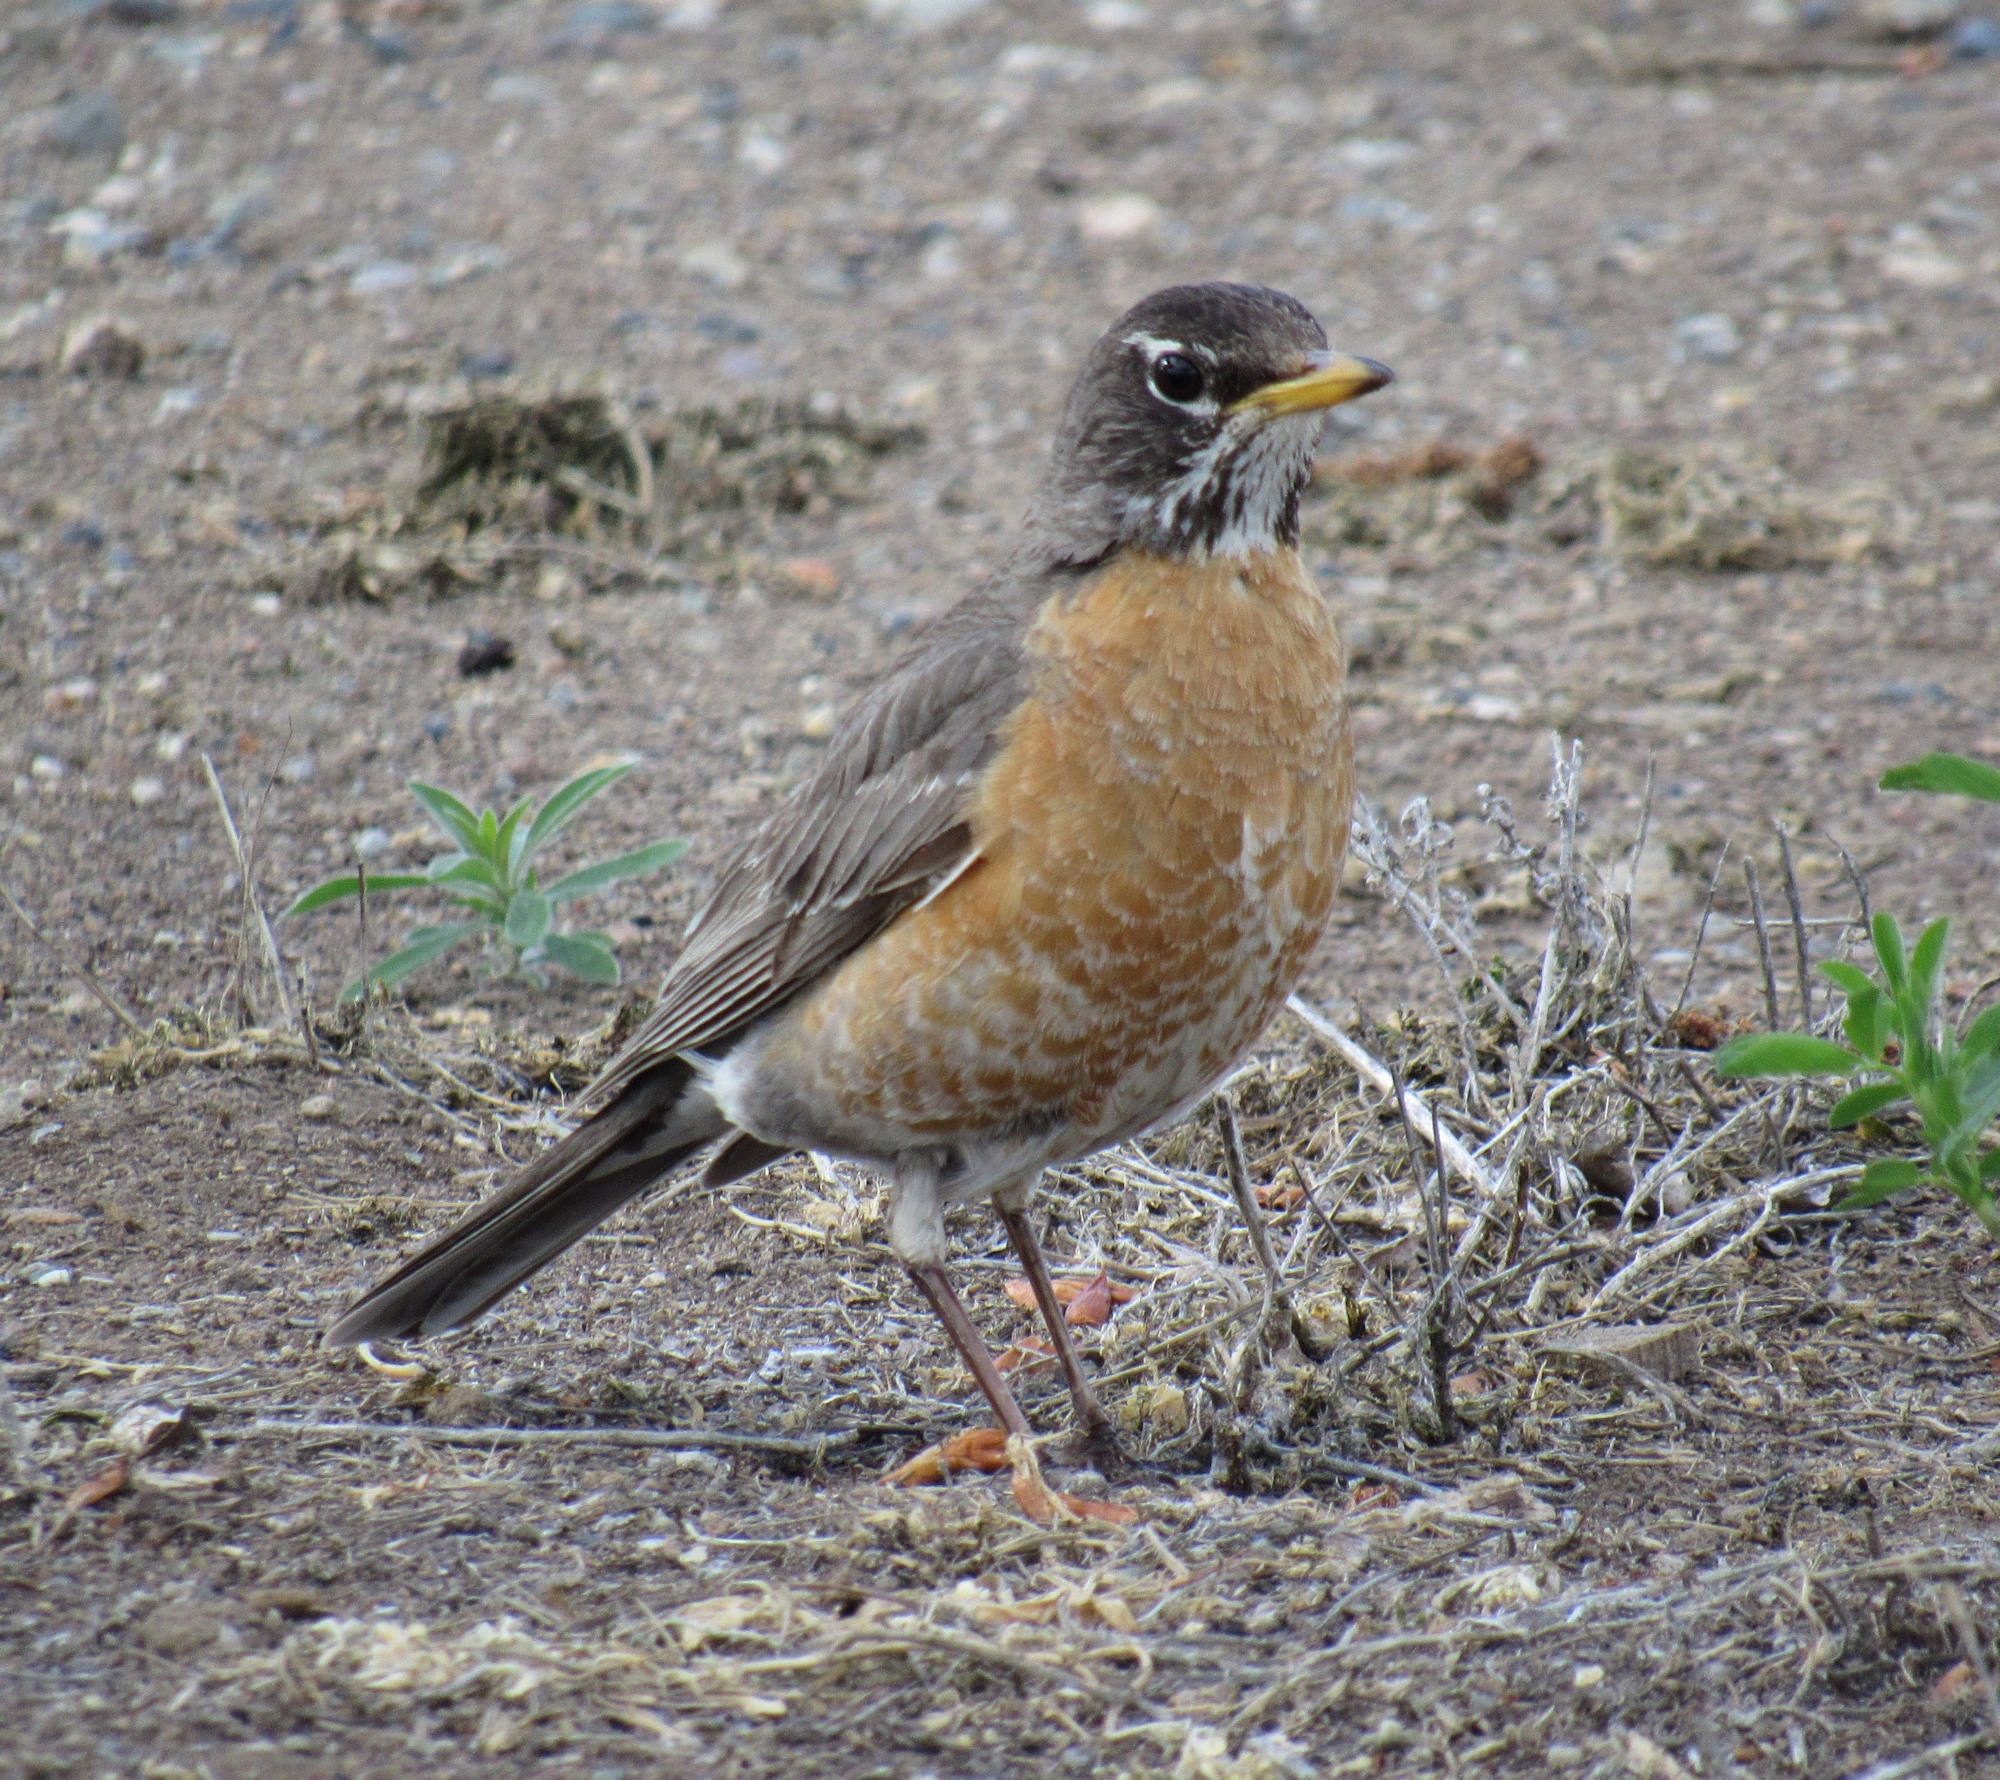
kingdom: Animalia
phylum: Chordata
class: Aves
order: Passeriformes
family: Turdidae
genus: Turdus
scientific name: Turdus migratorius
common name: American robin
